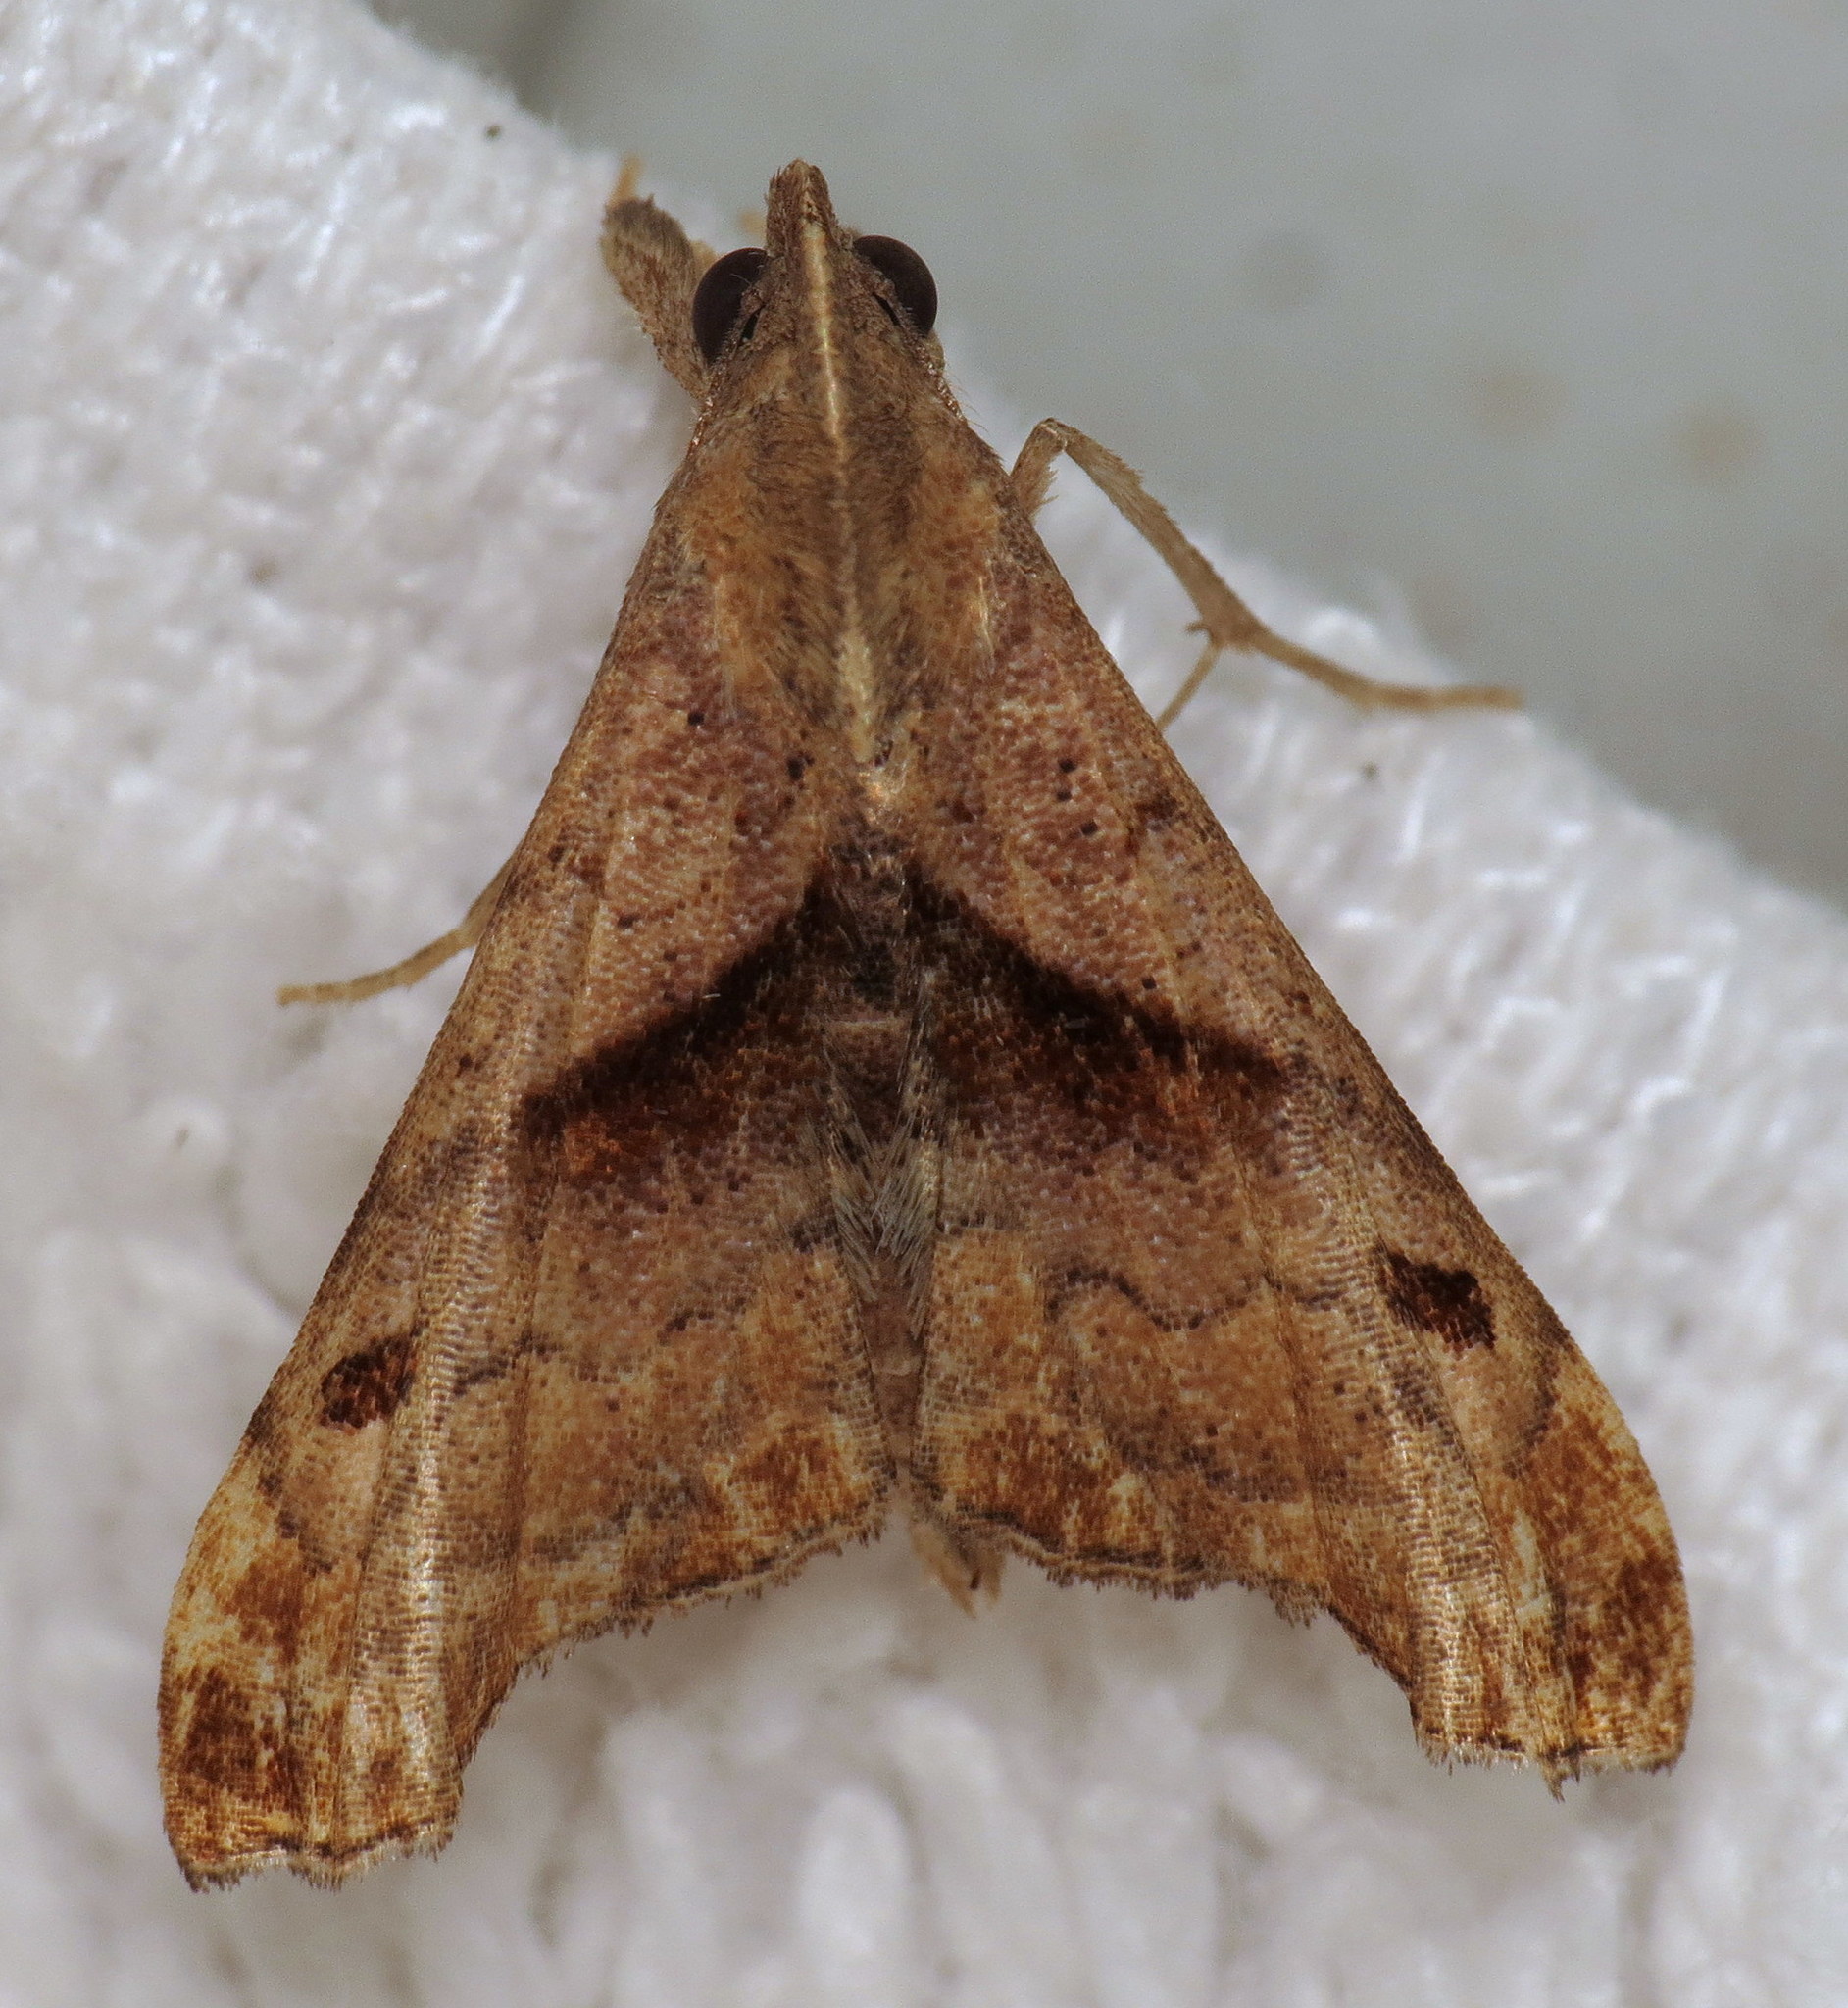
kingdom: Animalia
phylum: Arthropoda
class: Insecta
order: Lepidoptera
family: Erebidae
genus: Palthis
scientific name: Palthis angulalis
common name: Dark-spotted palthis moth
